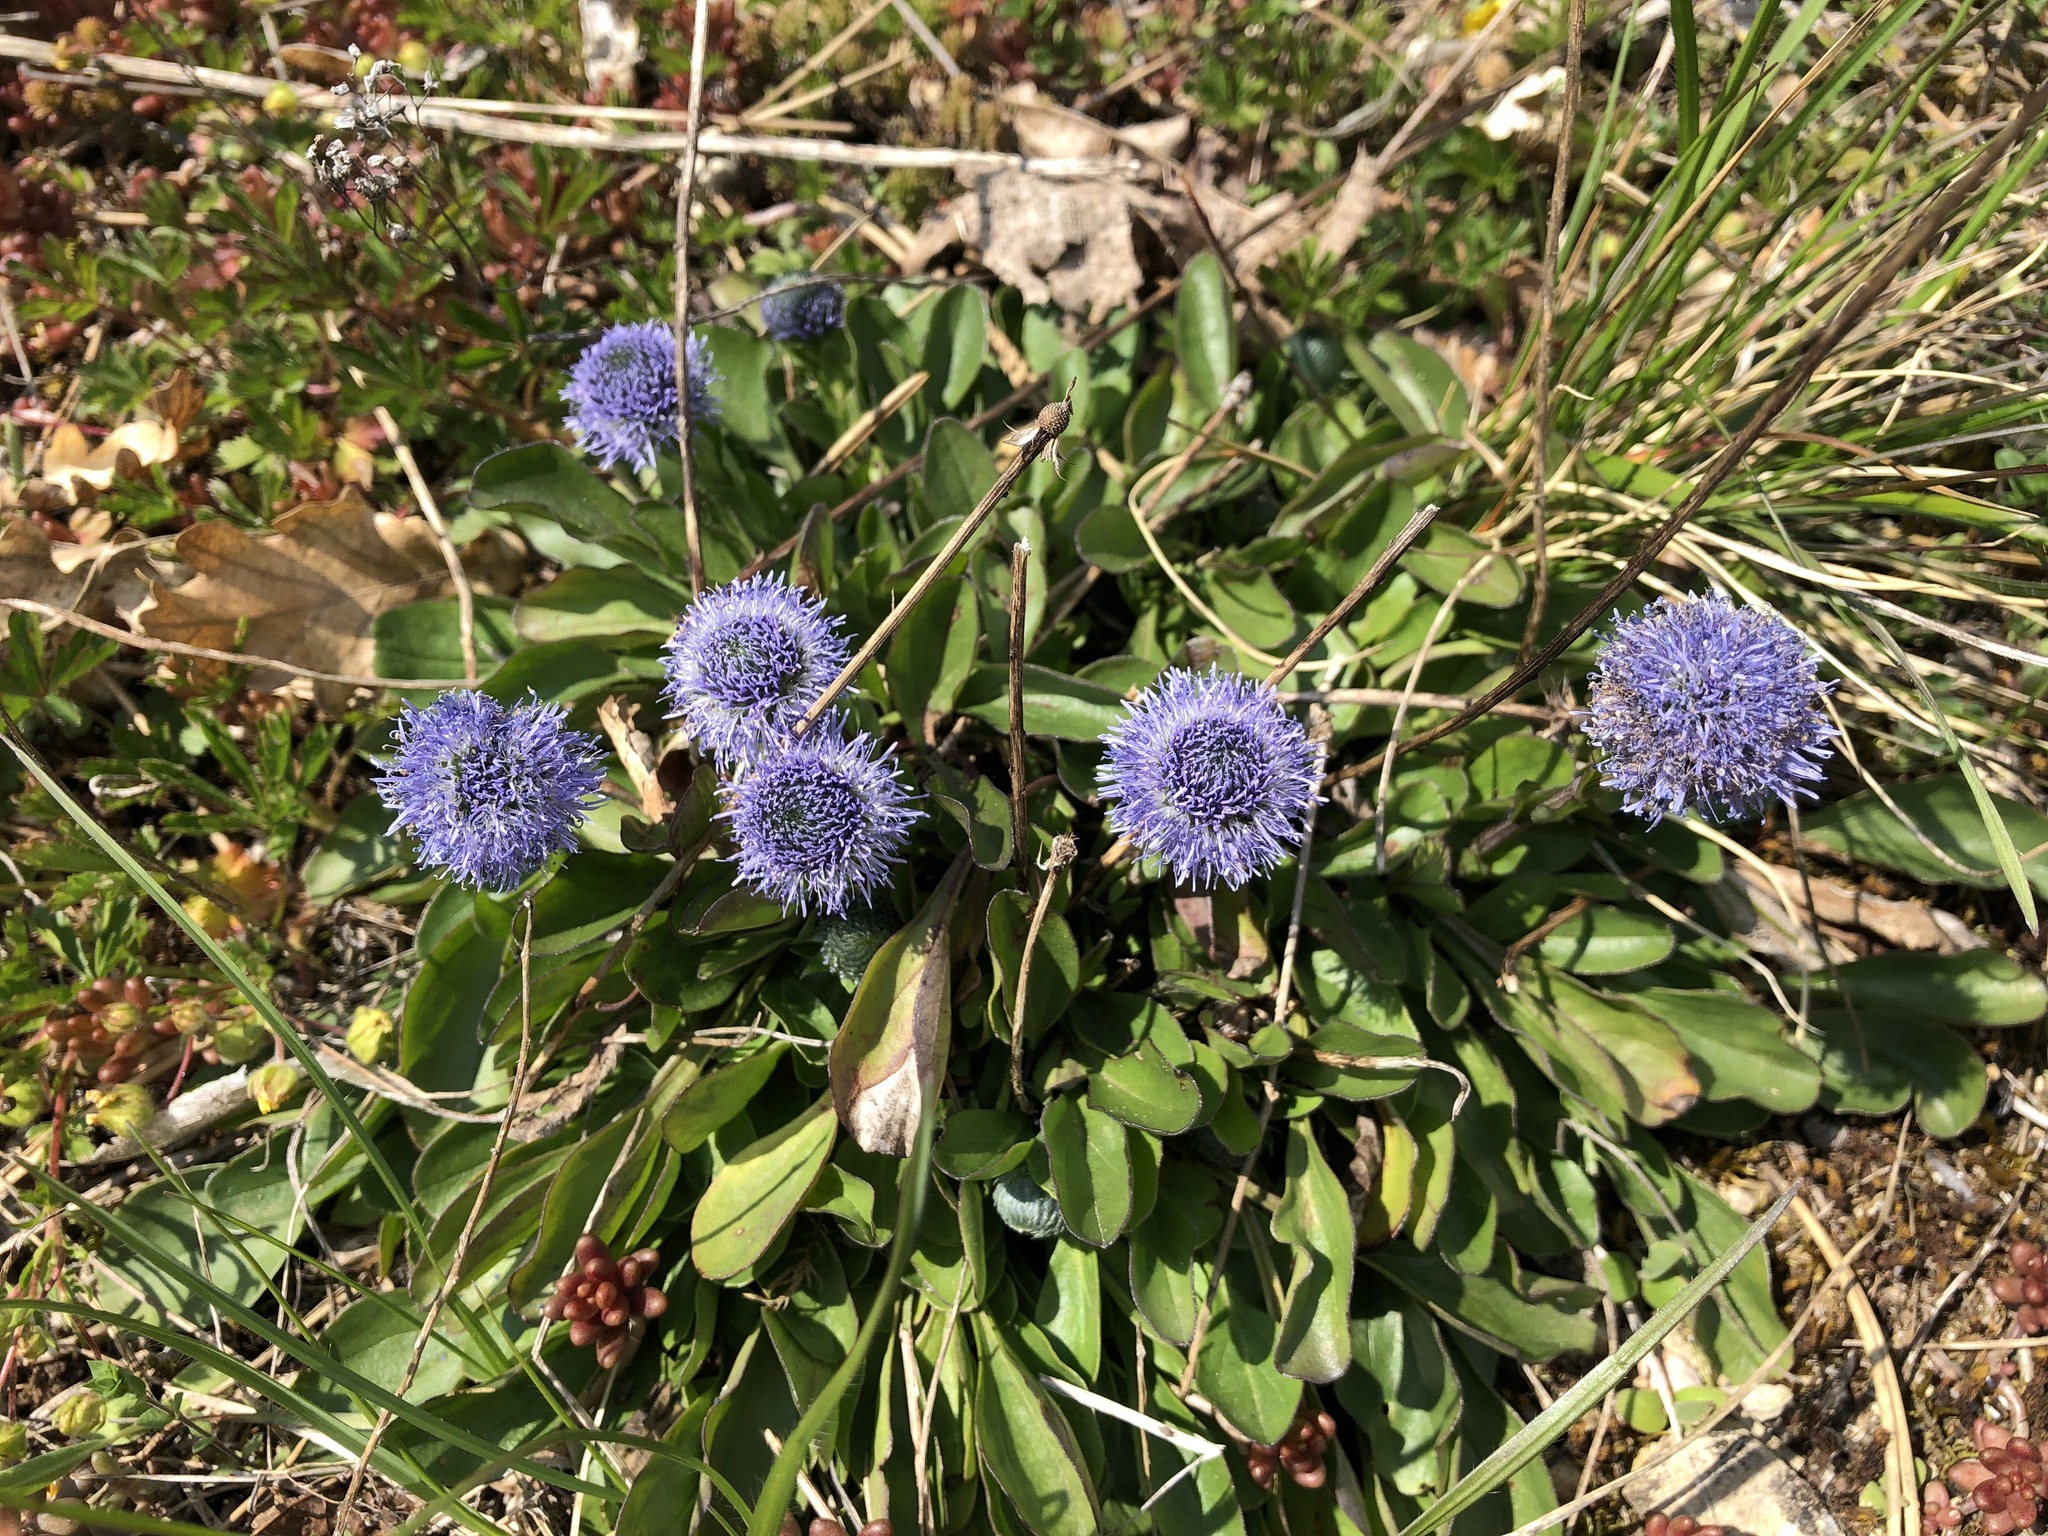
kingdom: Plantae
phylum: Tracheophyta
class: Magnoliopsida
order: Lamiales
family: Plantaginaceae
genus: Globularia
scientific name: Globularia bisnagarica
